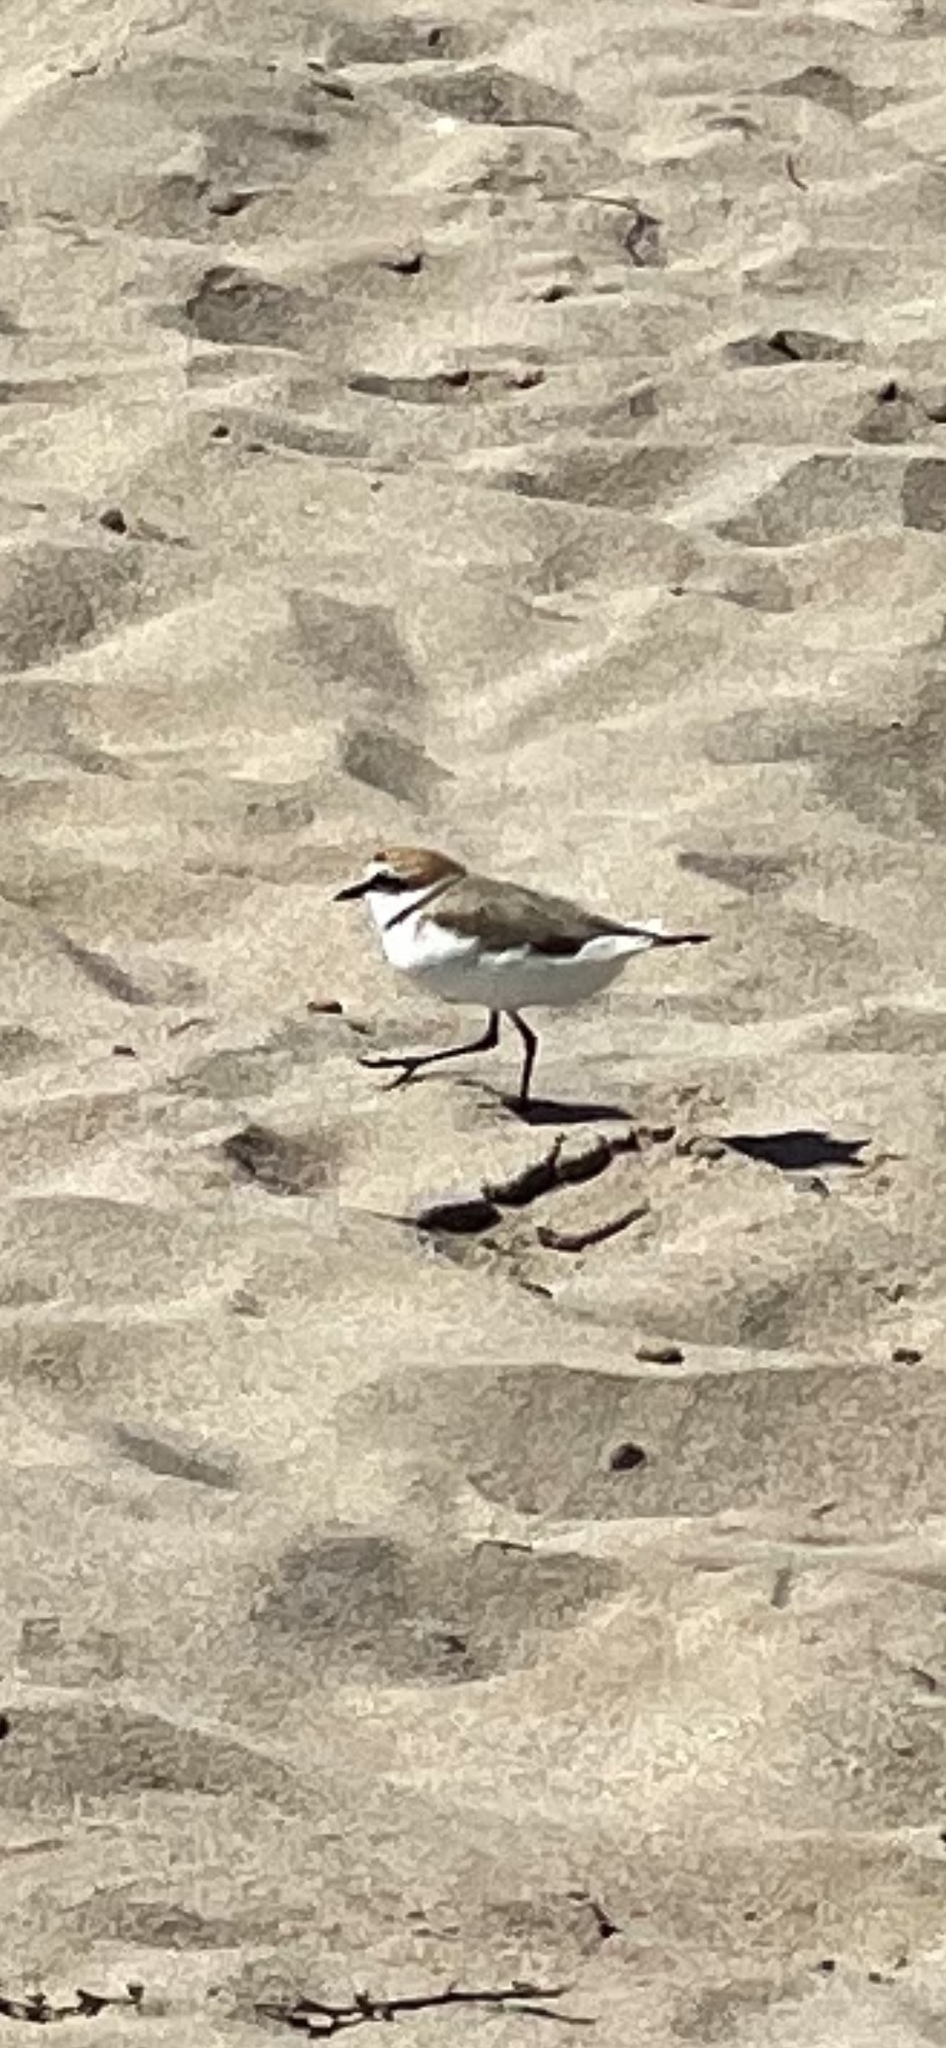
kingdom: Animalia
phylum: Chordata
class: Aves
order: Charadriiformes
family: Charadriidae
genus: Charadrius
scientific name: Charadrius alexandrinus
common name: Kentish plover
